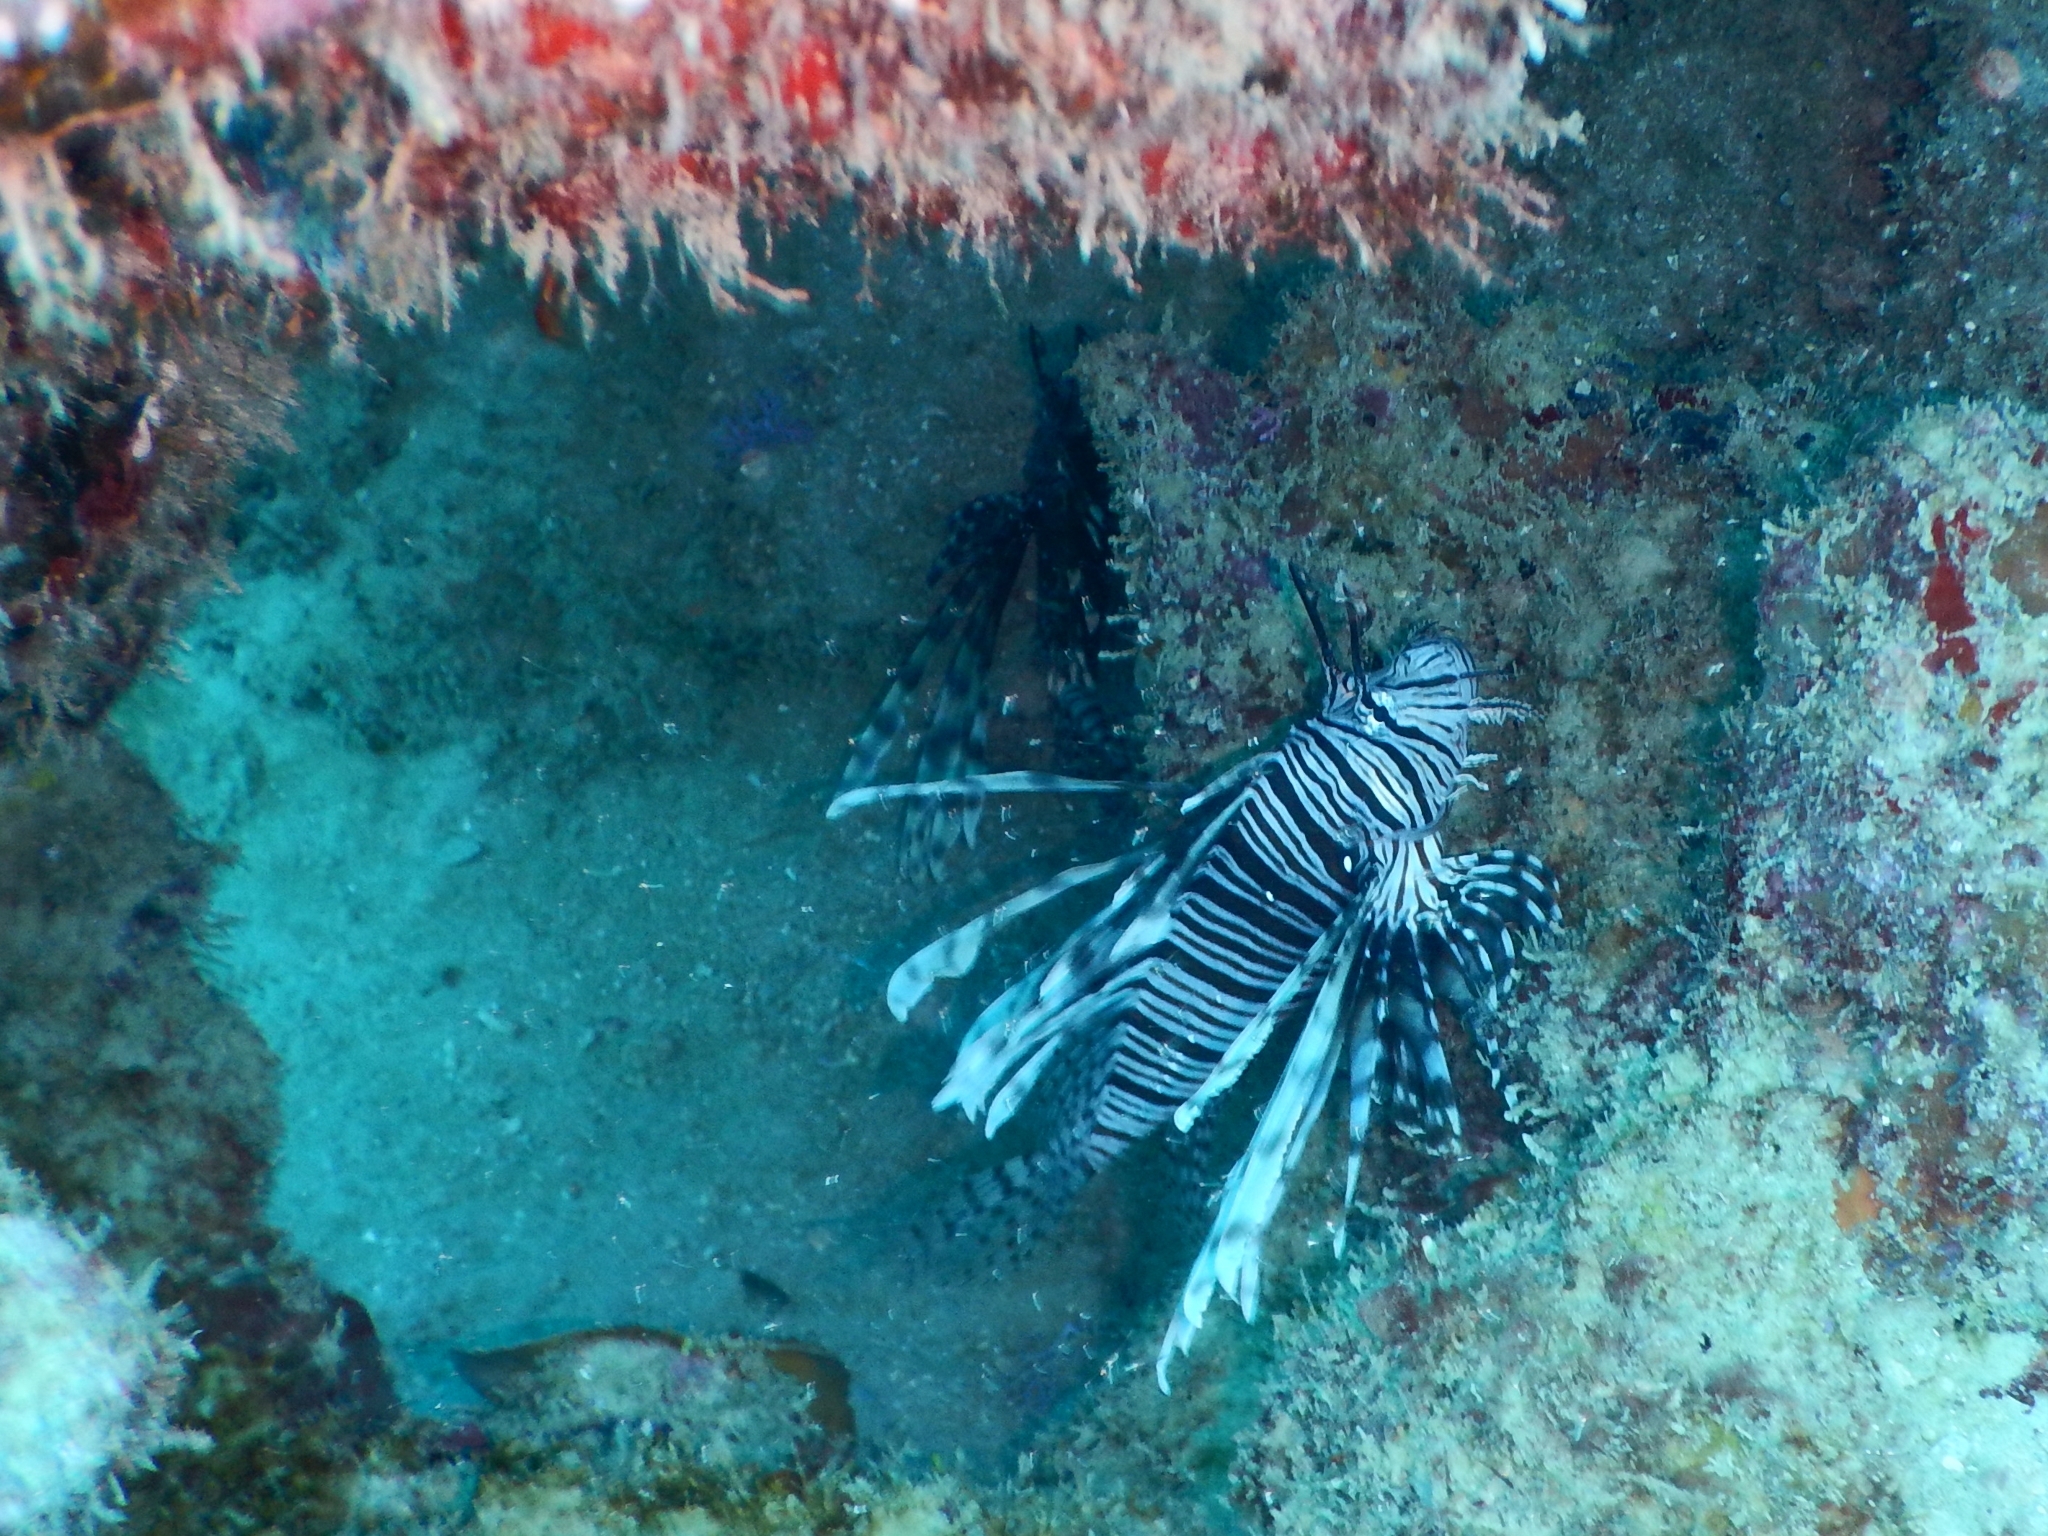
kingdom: Animalia
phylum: Chordata
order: Scorpaeniformes
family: Scorpaenidae
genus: Pterois
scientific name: Pterois volitans
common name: Lionfish
